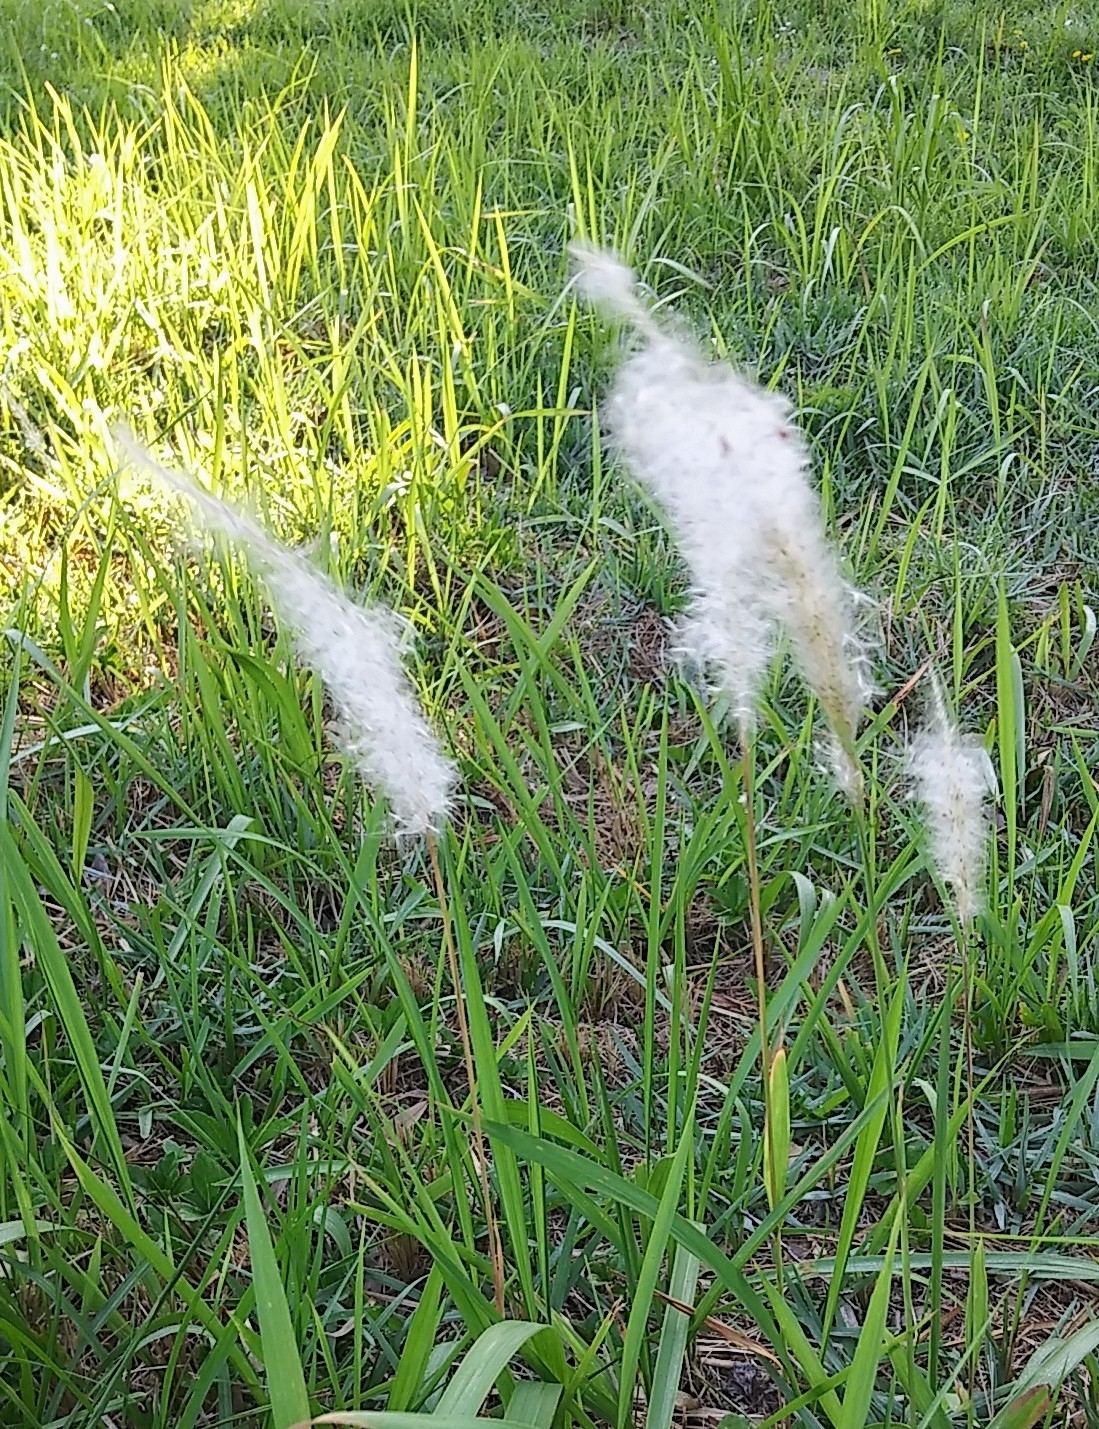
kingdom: Plantae
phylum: Tracheophyta
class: Liliopsida
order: Poales
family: Poaceae
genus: Imperata
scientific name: Imperata cylindrica
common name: Cogongrass
